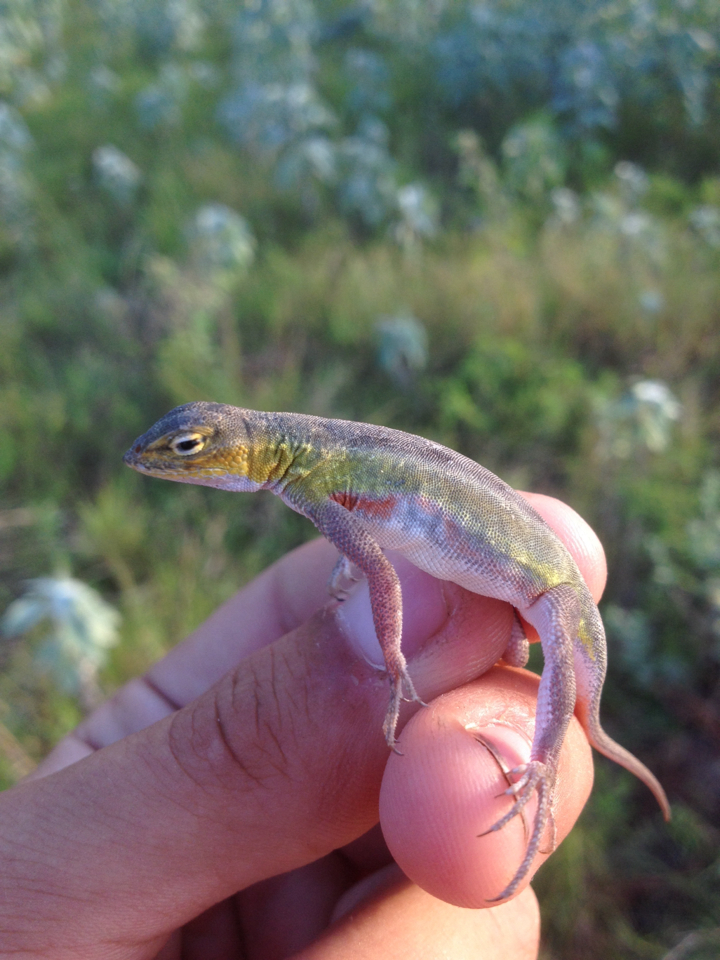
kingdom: Animalia
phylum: Chordata
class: Squamata
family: Phrynosomatidae
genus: Holbrookia
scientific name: Holbrookia propinqua
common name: Keeled earless lizard
